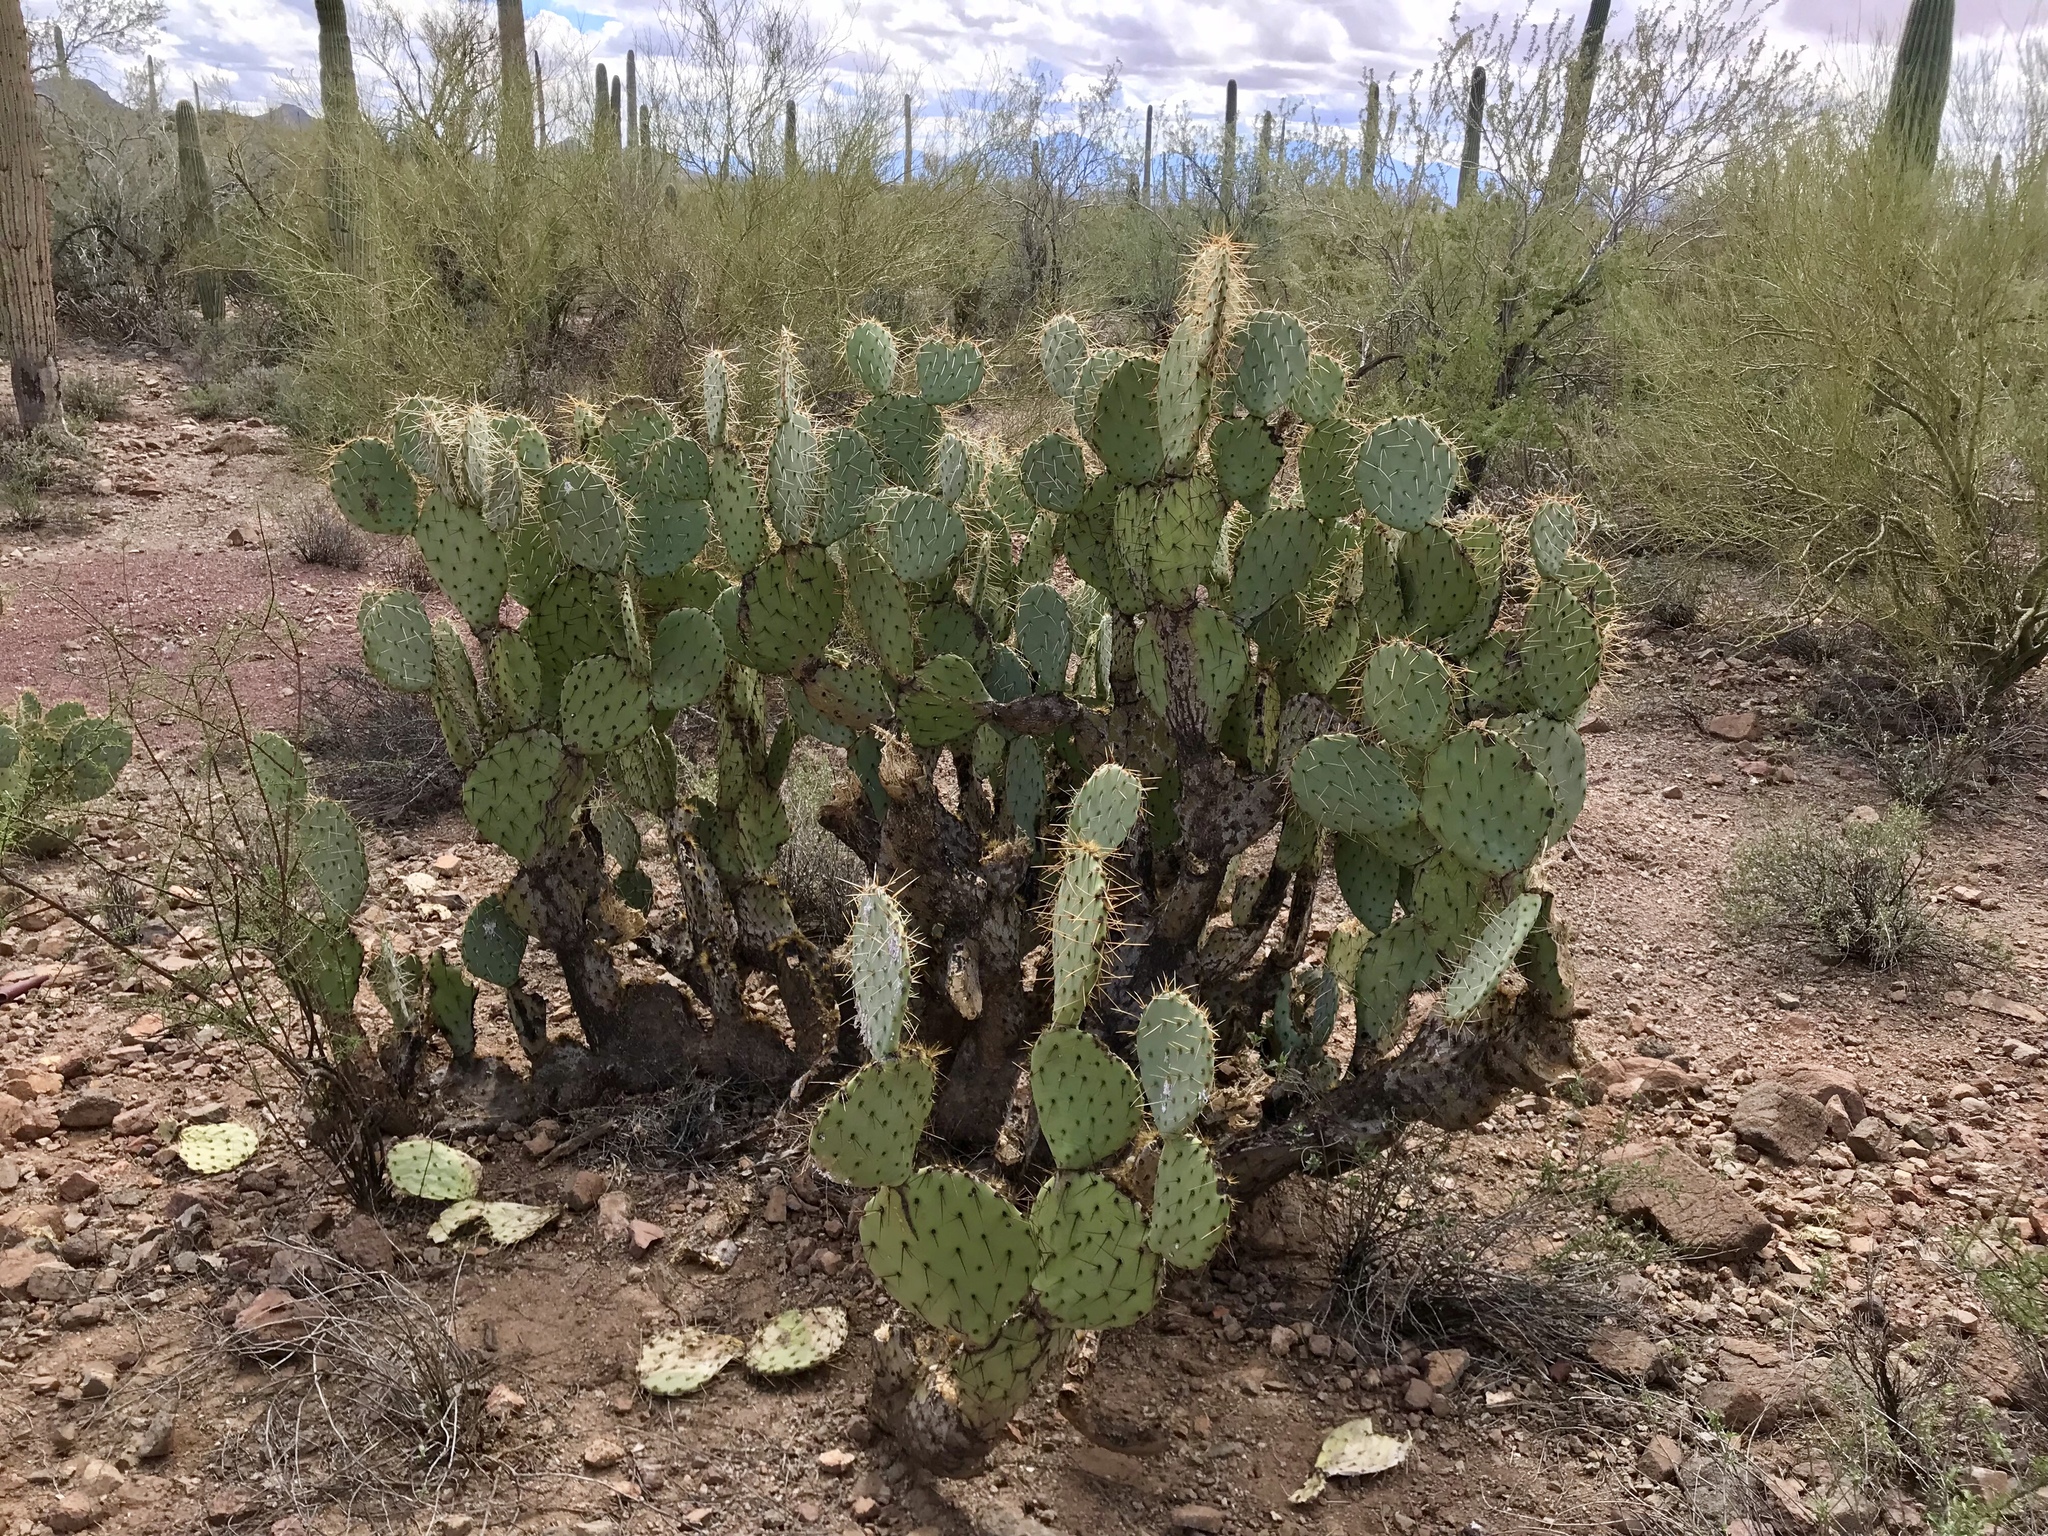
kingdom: Plantae
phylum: Tracheophyta
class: Magnoliopsida
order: Caryophyllales
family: Cactaceae
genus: Opuntia
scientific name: Opuntia phaeacantha
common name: New mexico prickly-pear
